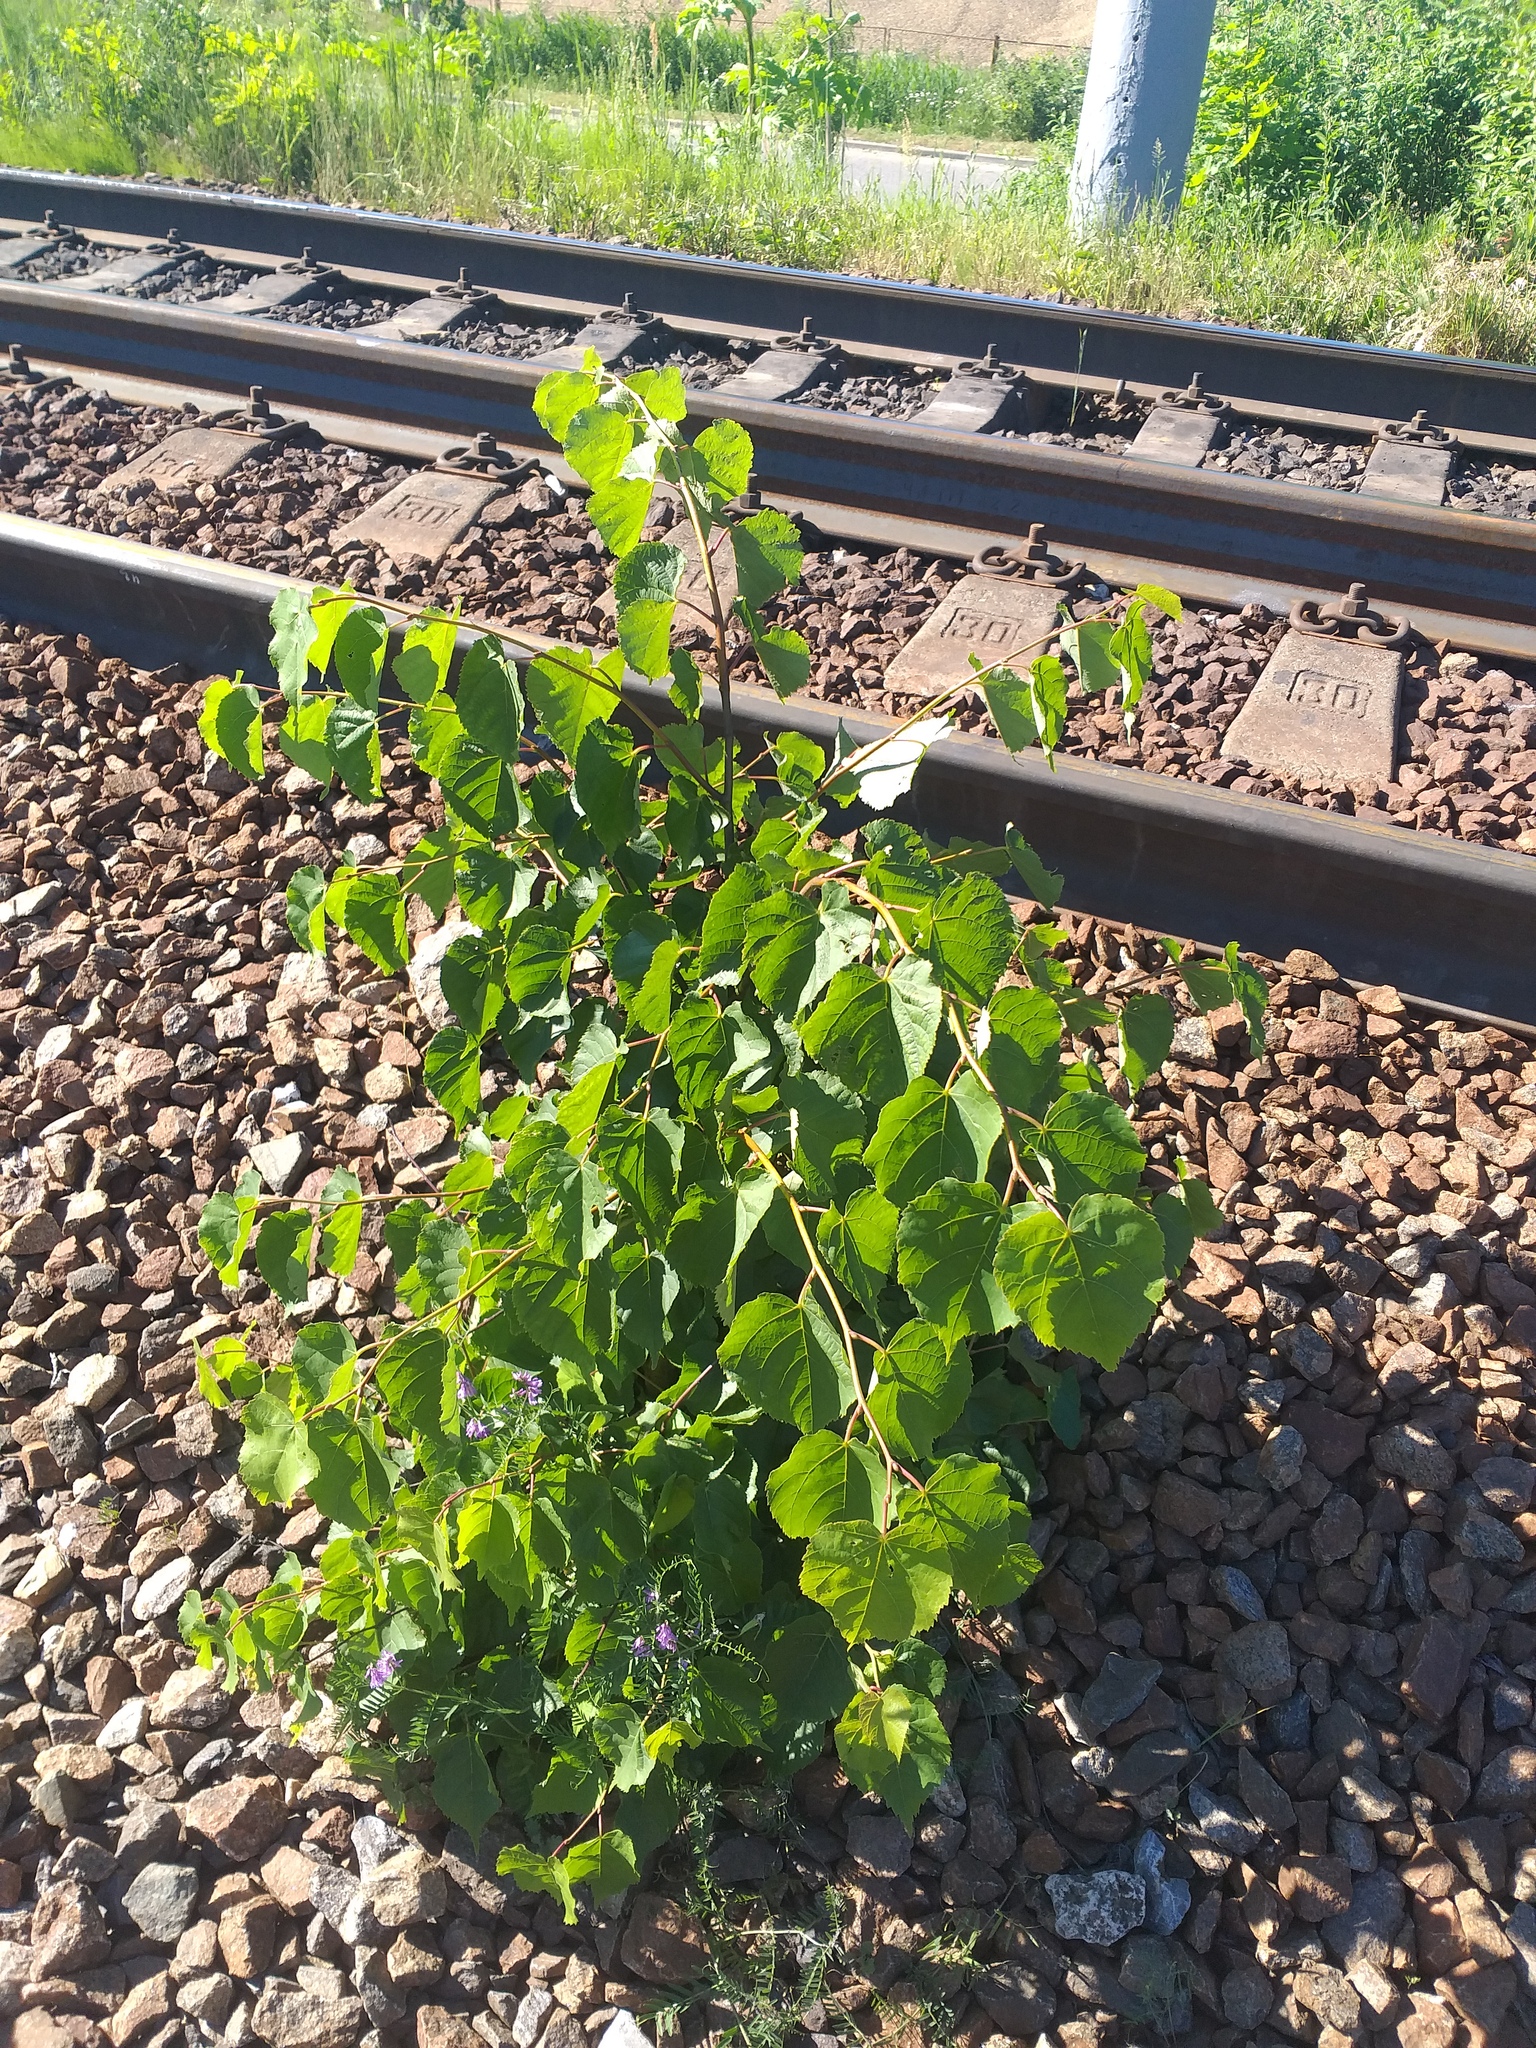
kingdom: Plantae
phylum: Tracheophyta
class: Magnoliopsida
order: Malvales
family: Malvaceae
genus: Tilia
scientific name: Tilia cordata
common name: Small-leaved lime
